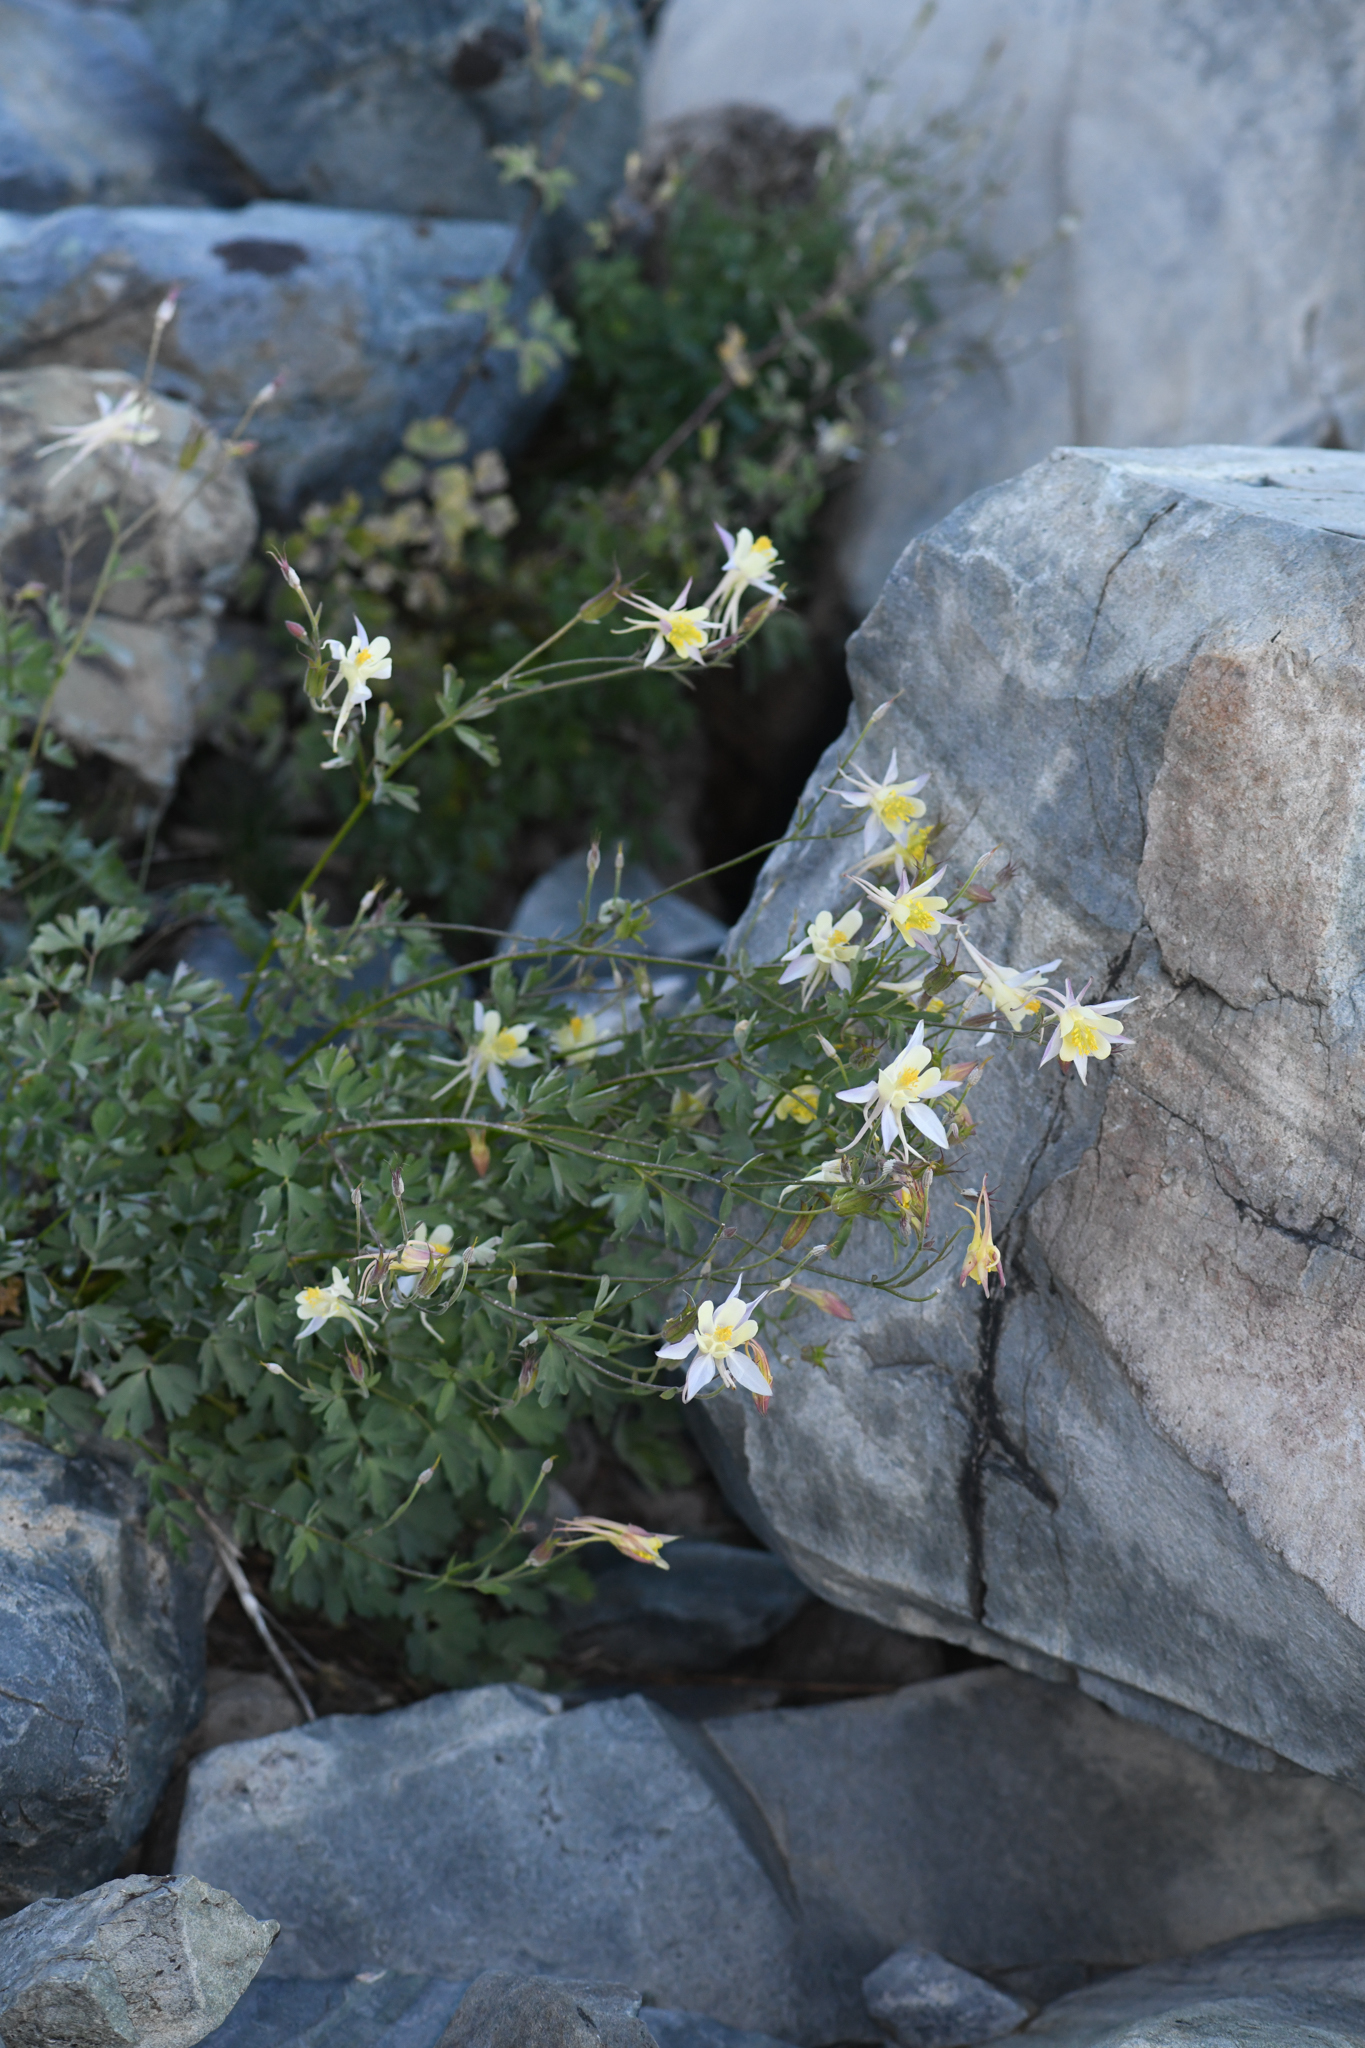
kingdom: Plantae
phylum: Tracheophyta
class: Magnoliopsida
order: Ranunculales
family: Ranunculaceae
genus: Aquilegia
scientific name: Aquilegia pubescens
